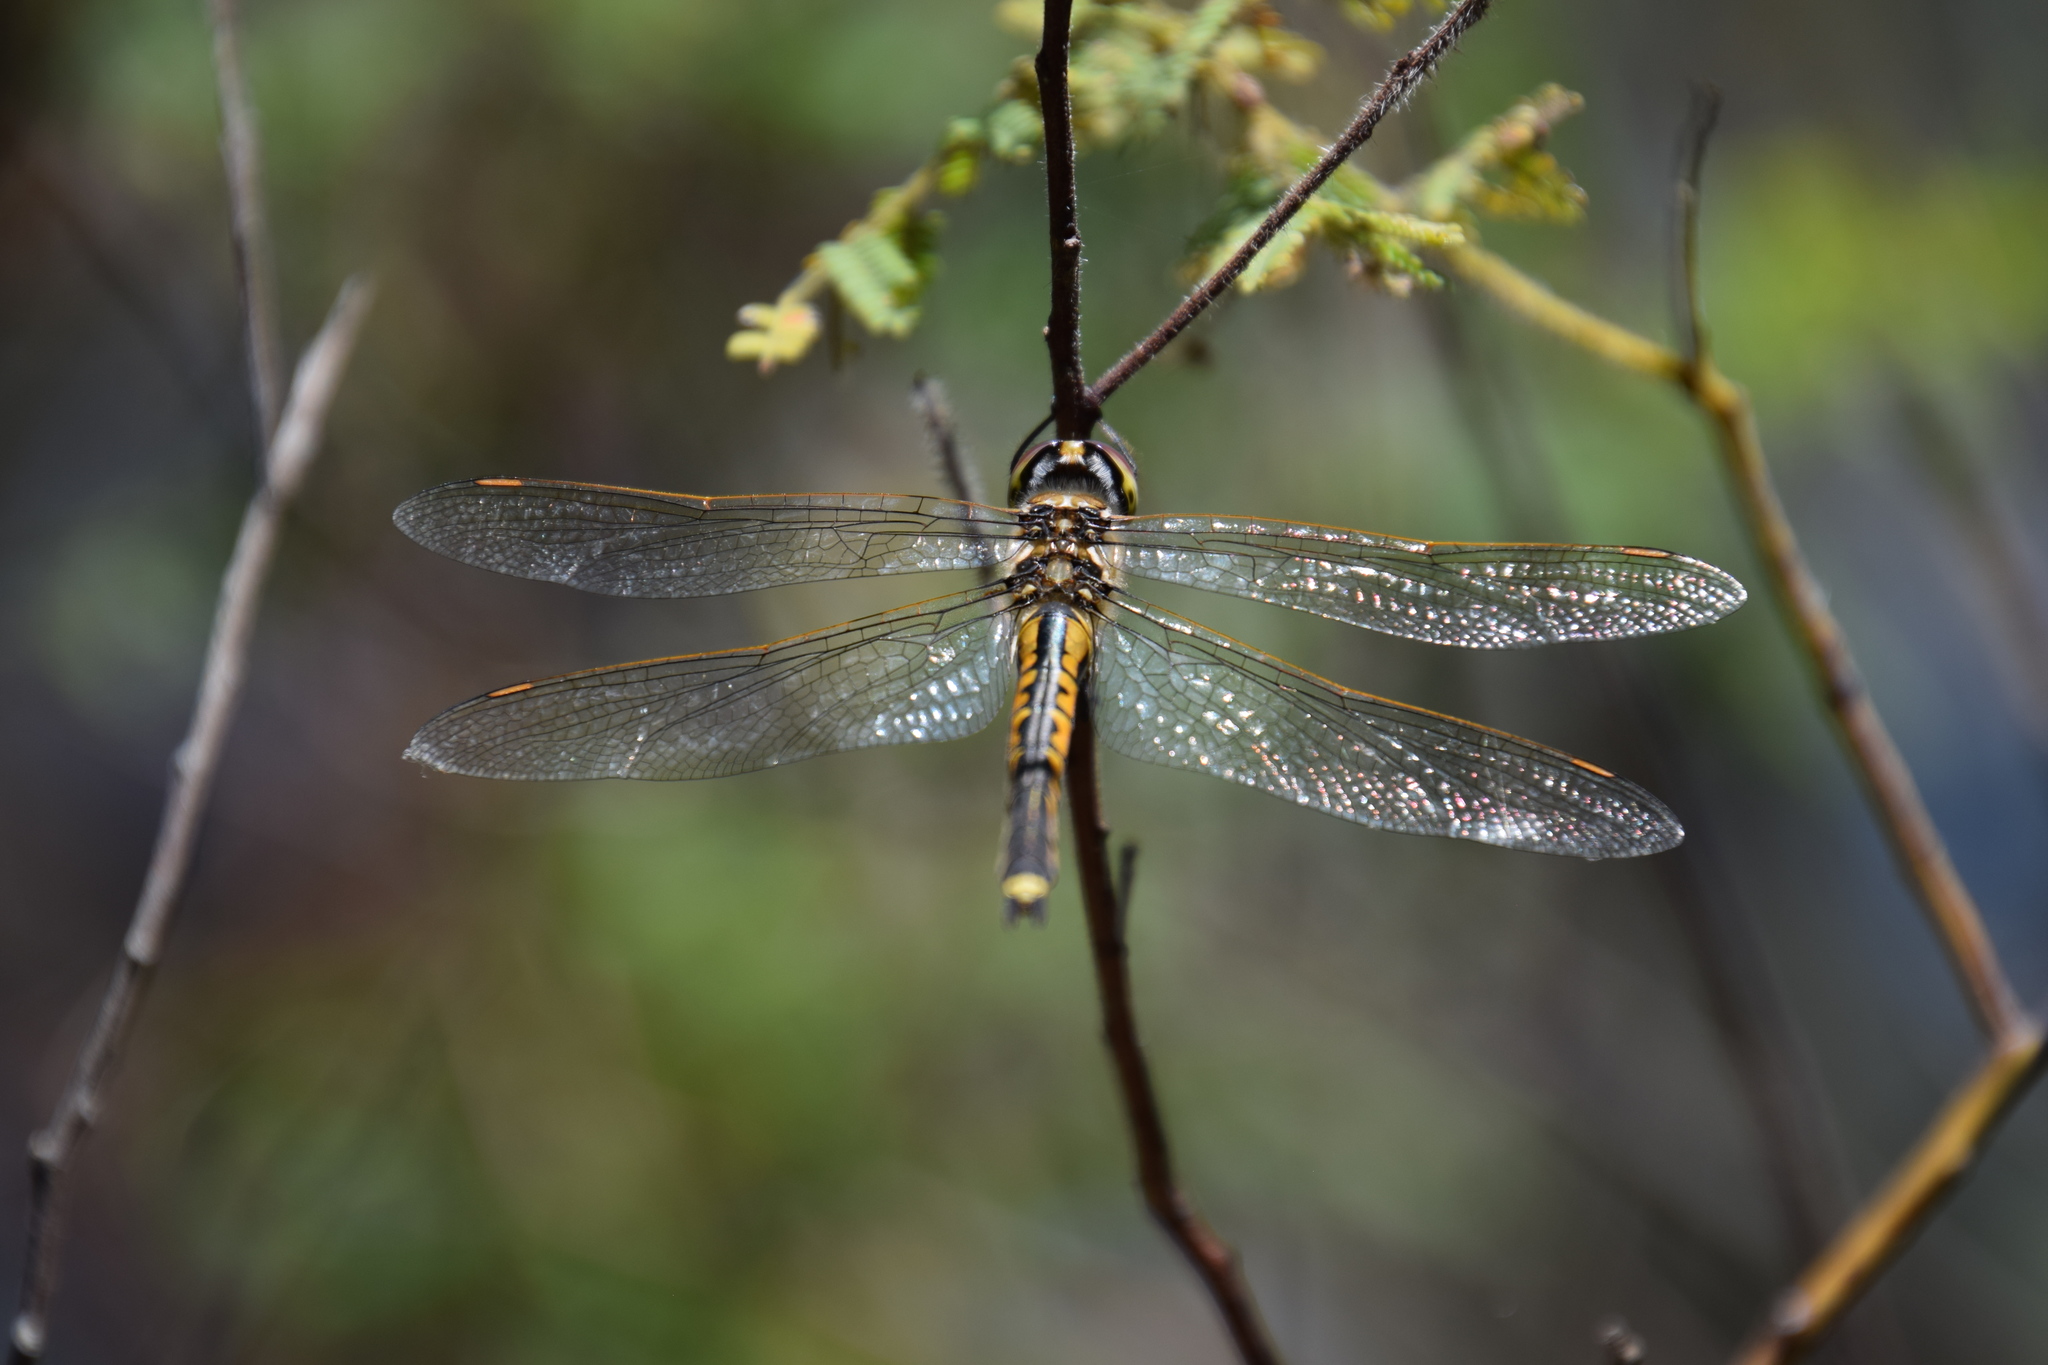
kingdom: Animalia
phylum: Arthropoda
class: Insecta
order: Odonata
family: Corduliidae
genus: Hemicordulia
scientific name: Hemicordulia tau
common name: Tau emerald
